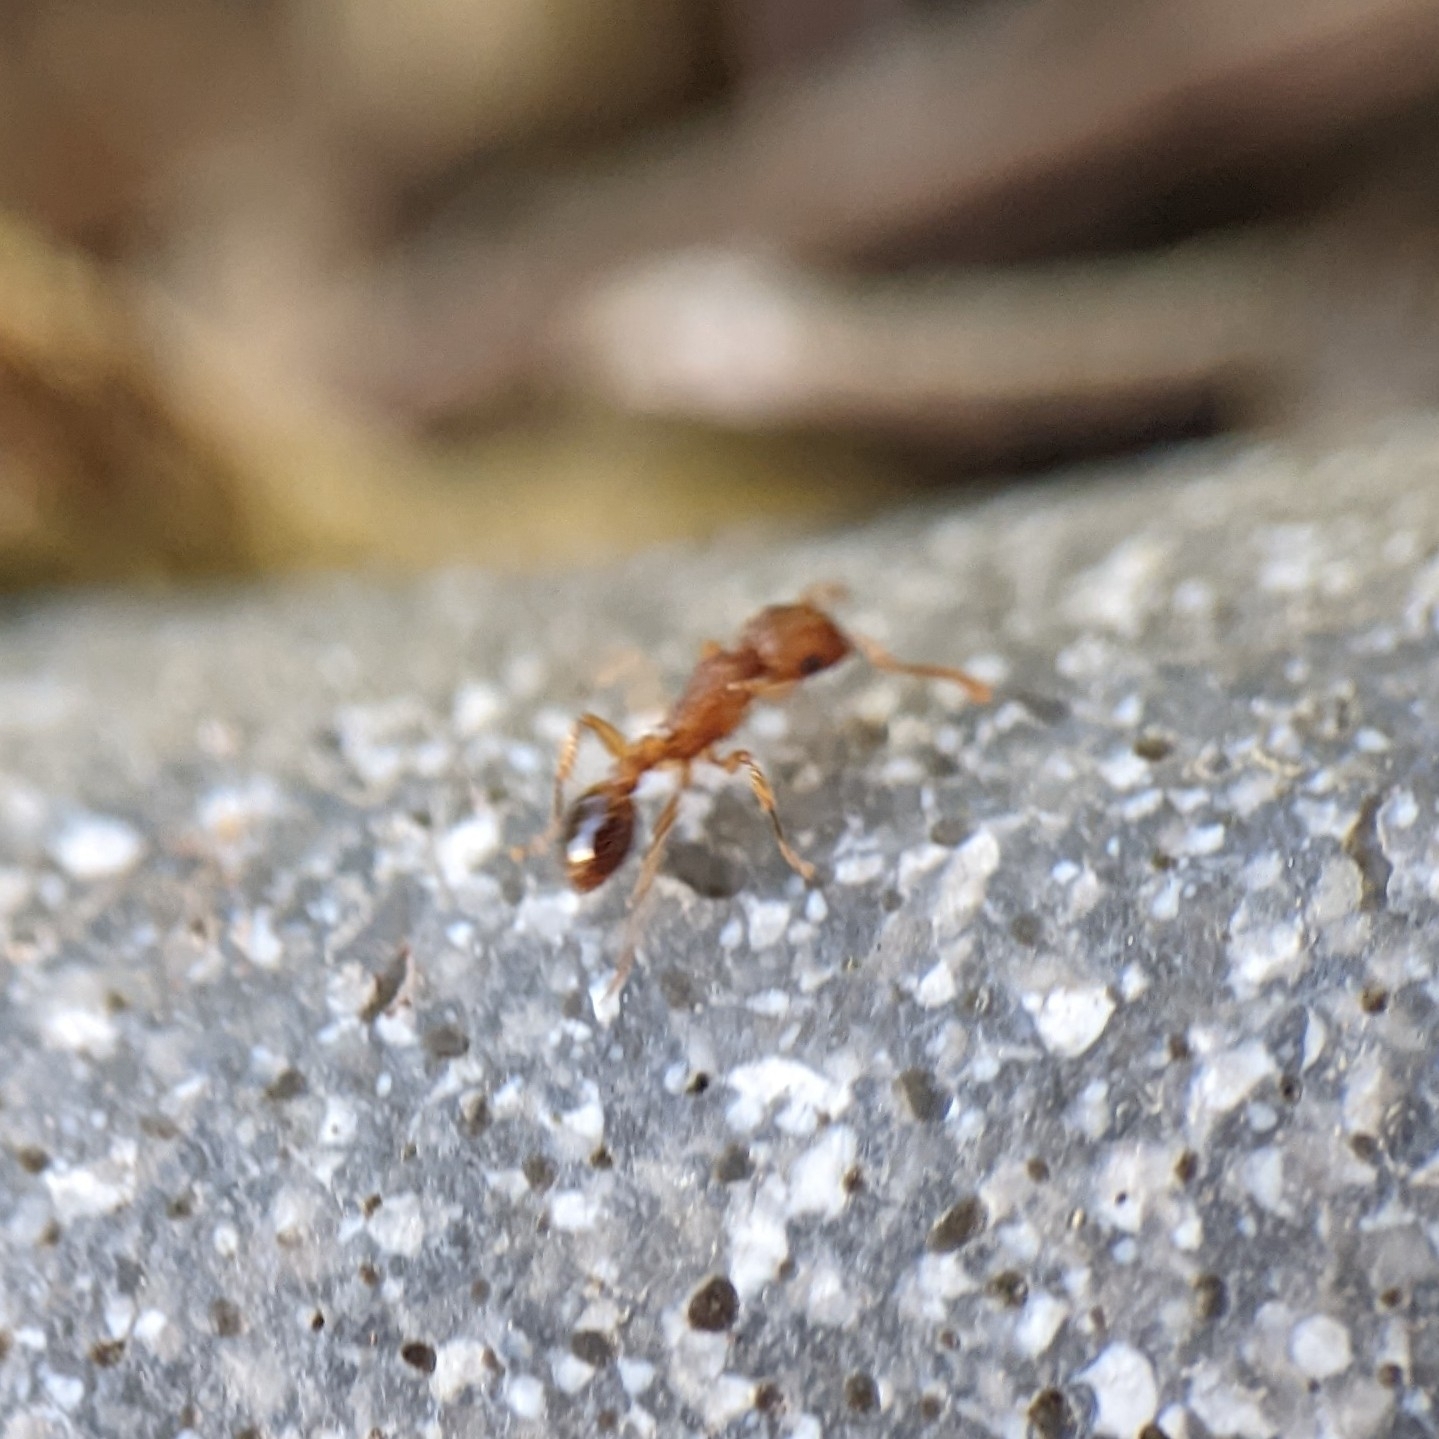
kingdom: Animalia
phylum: Arthropoda
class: Insecta
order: Hymenoptera
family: Formicidae
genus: Tetramorium
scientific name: Tetramorium bicarinatum
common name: Guinea ant
